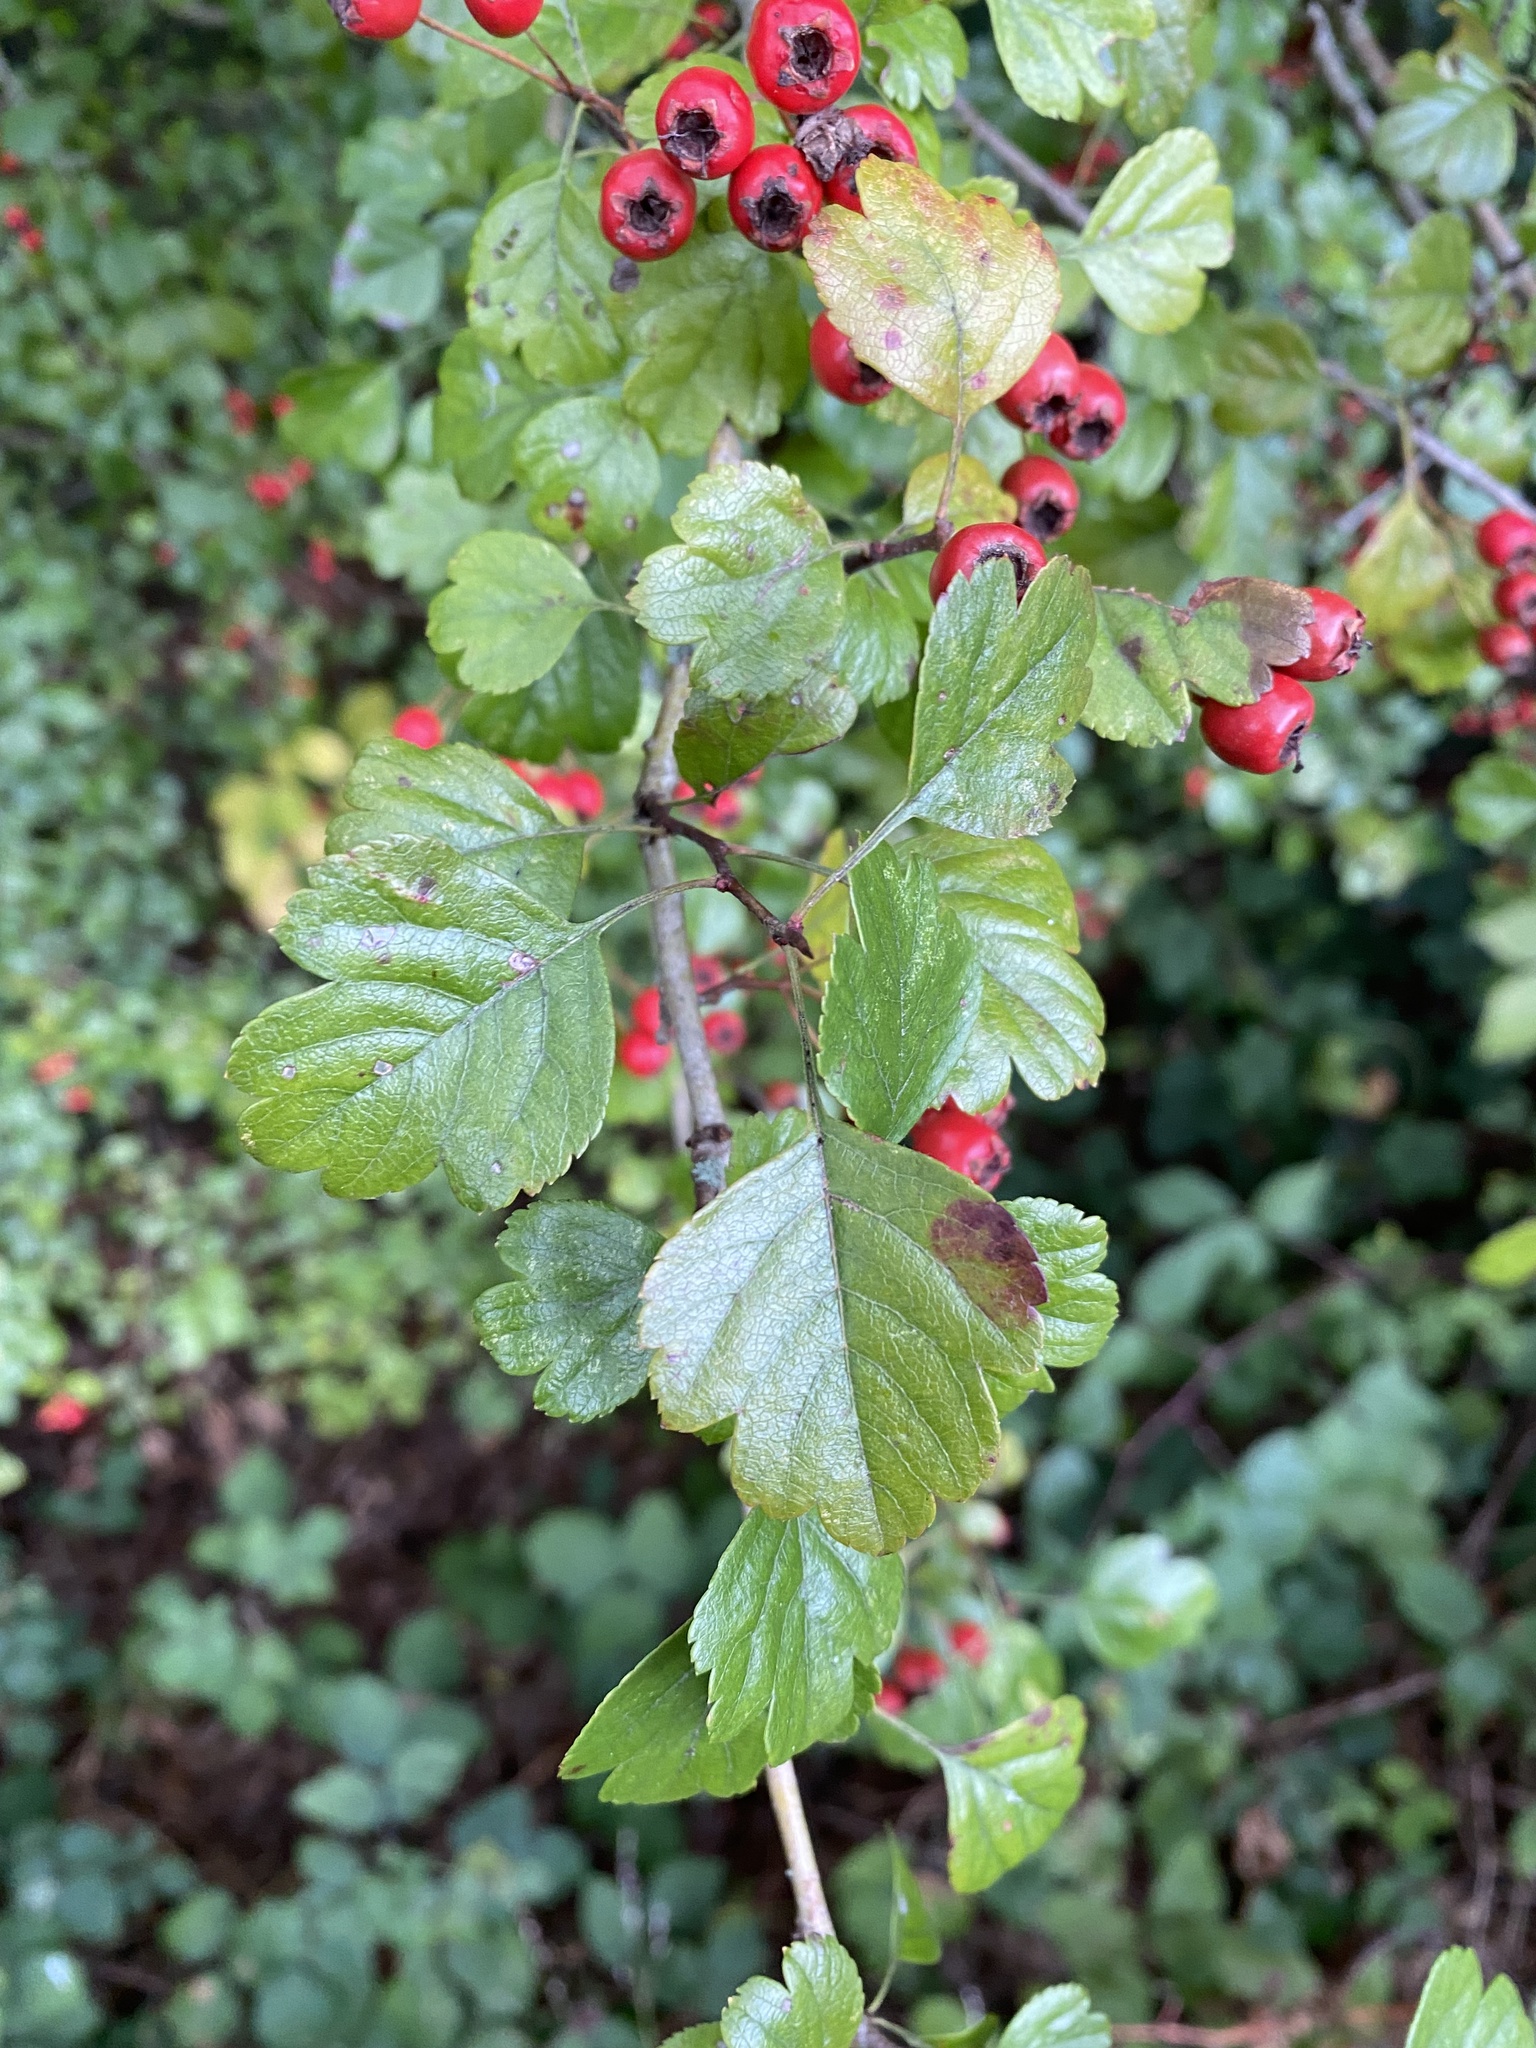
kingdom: Plantae
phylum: Tracheophyta
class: Magnoliopsida
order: Rosales
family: Rosaceae
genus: Crataegus
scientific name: Crataegus laevigata
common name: Midland hawthorn
